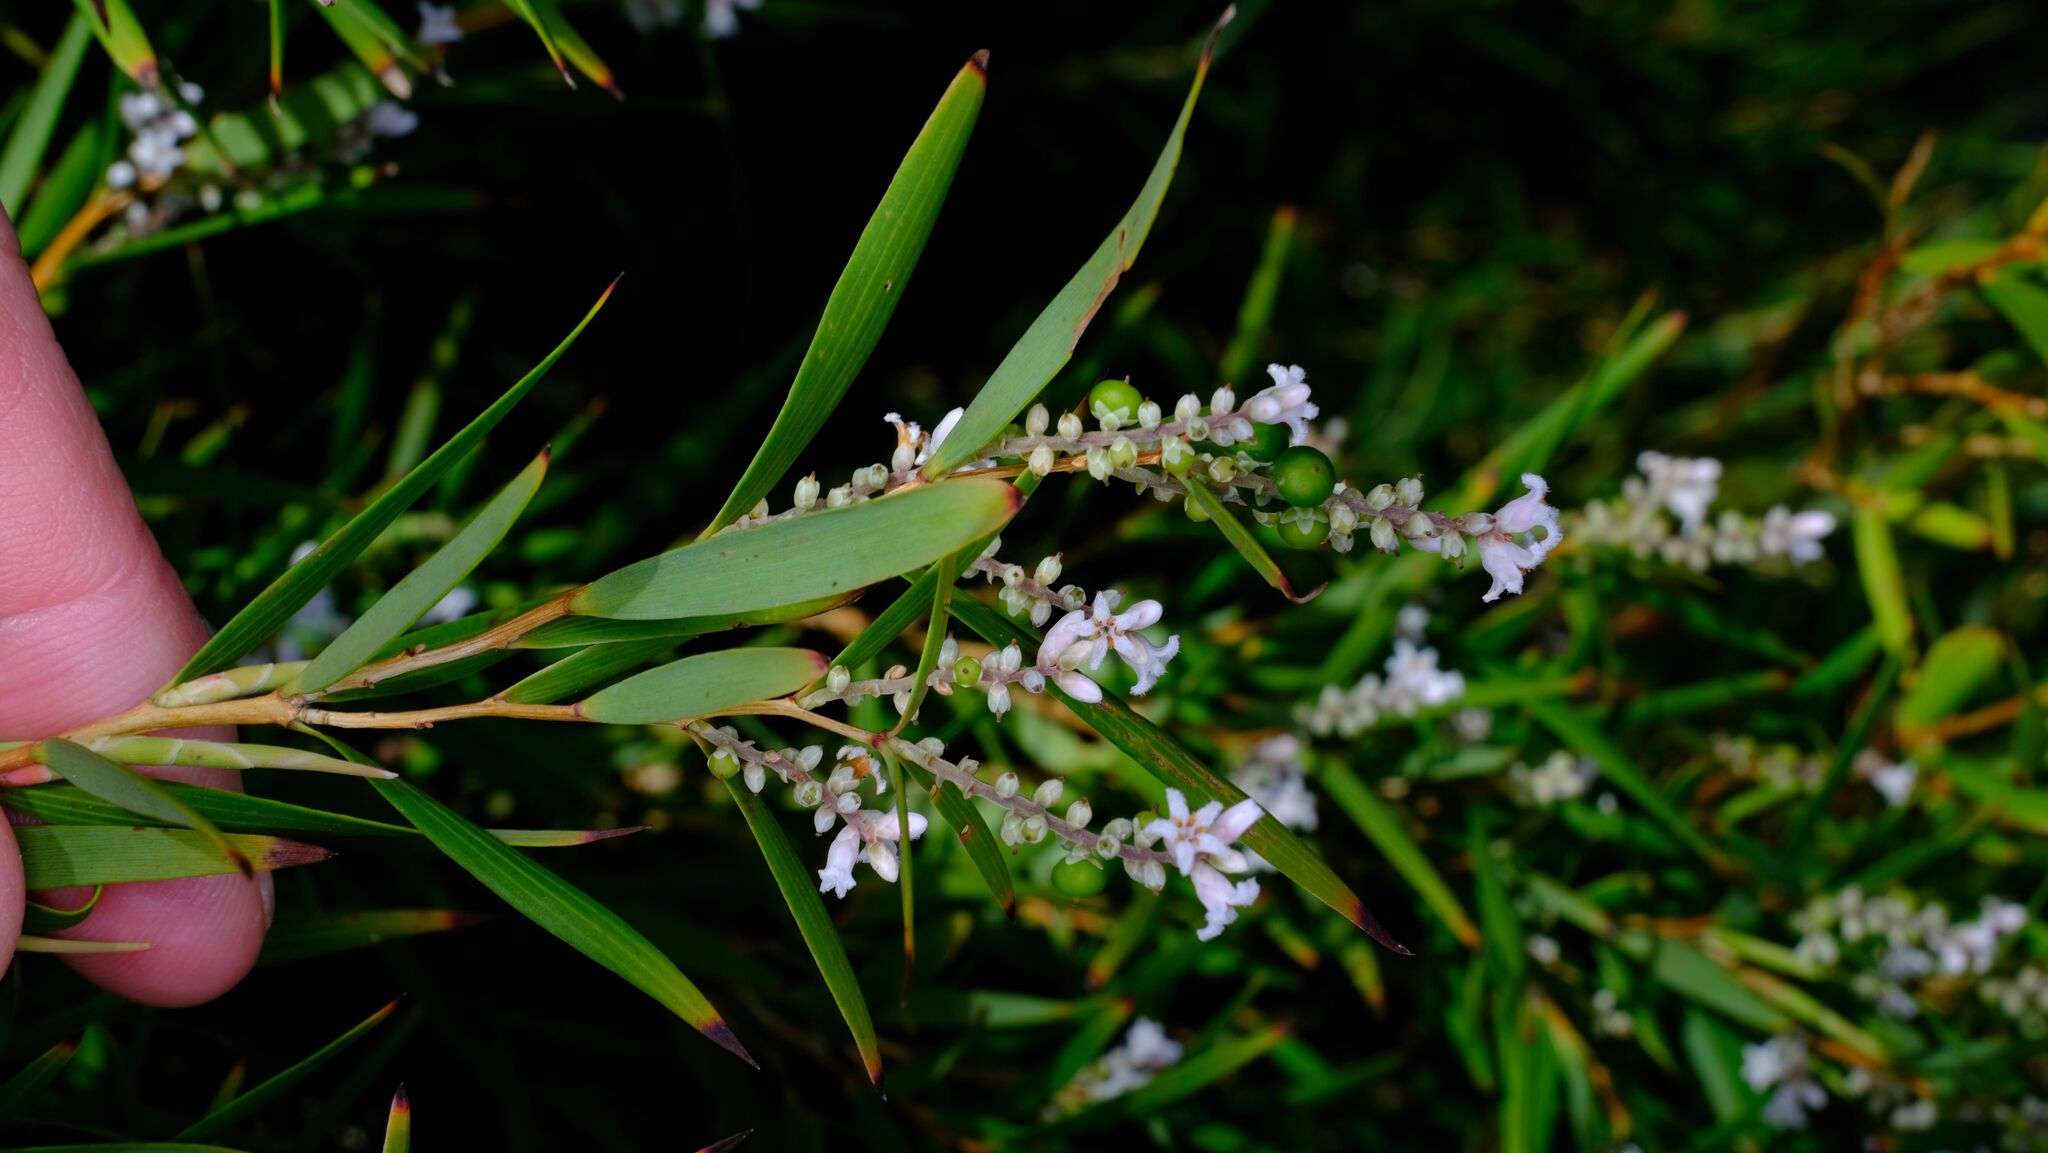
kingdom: Plantae
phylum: Tracheophyta
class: Magnoliopsida
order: Ericales
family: Ericaceae
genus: Leucopogon
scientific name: Leucopogon australis
